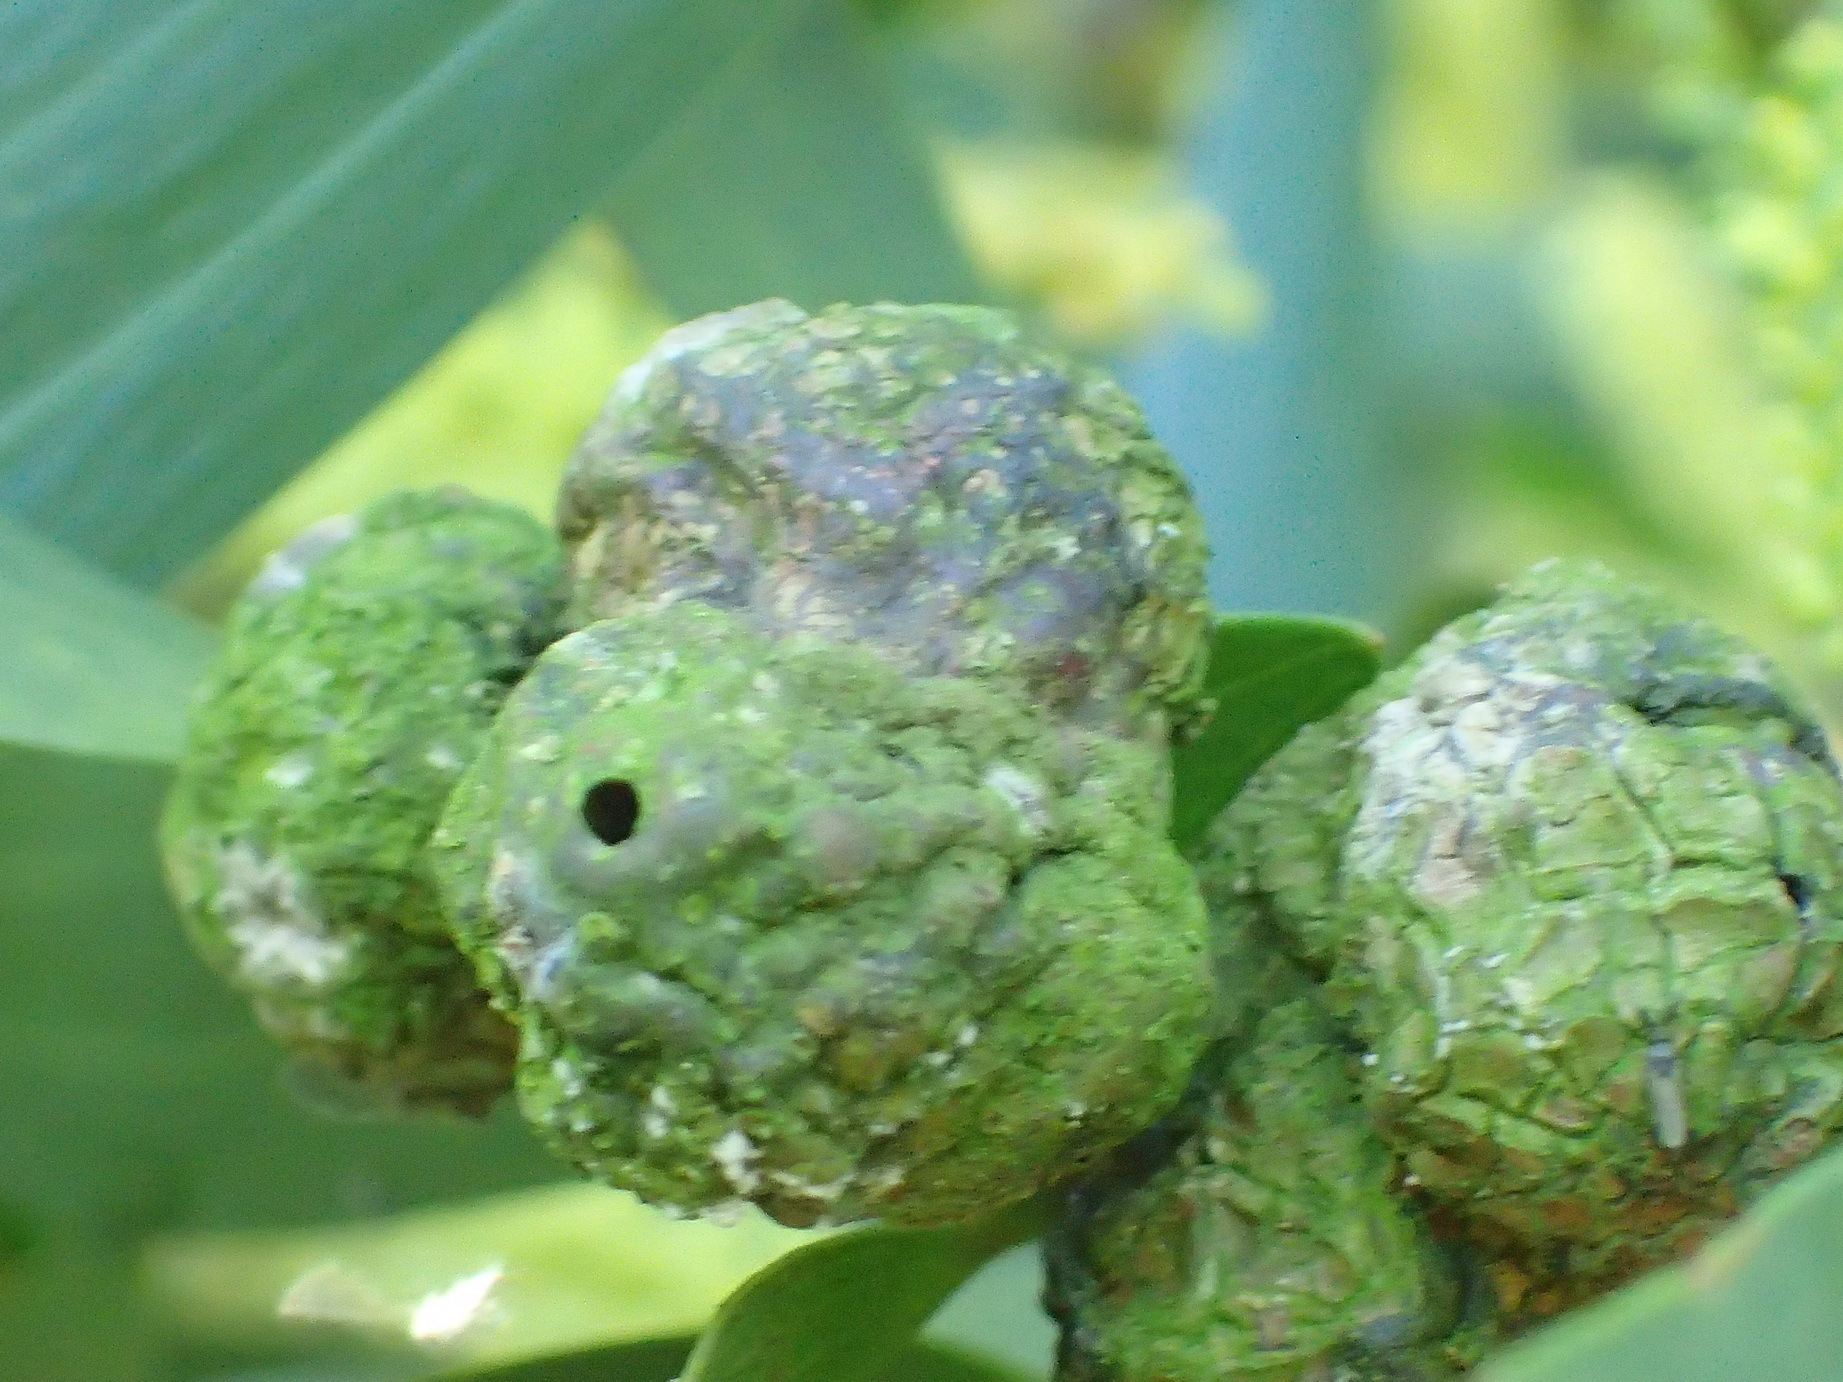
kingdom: Animalia
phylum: Arthropoda
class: Insecta
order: Hymenoptera
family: Pteromalidae
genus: Trichilogaster
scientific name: Trichilogaster acaciaelongifoliae
